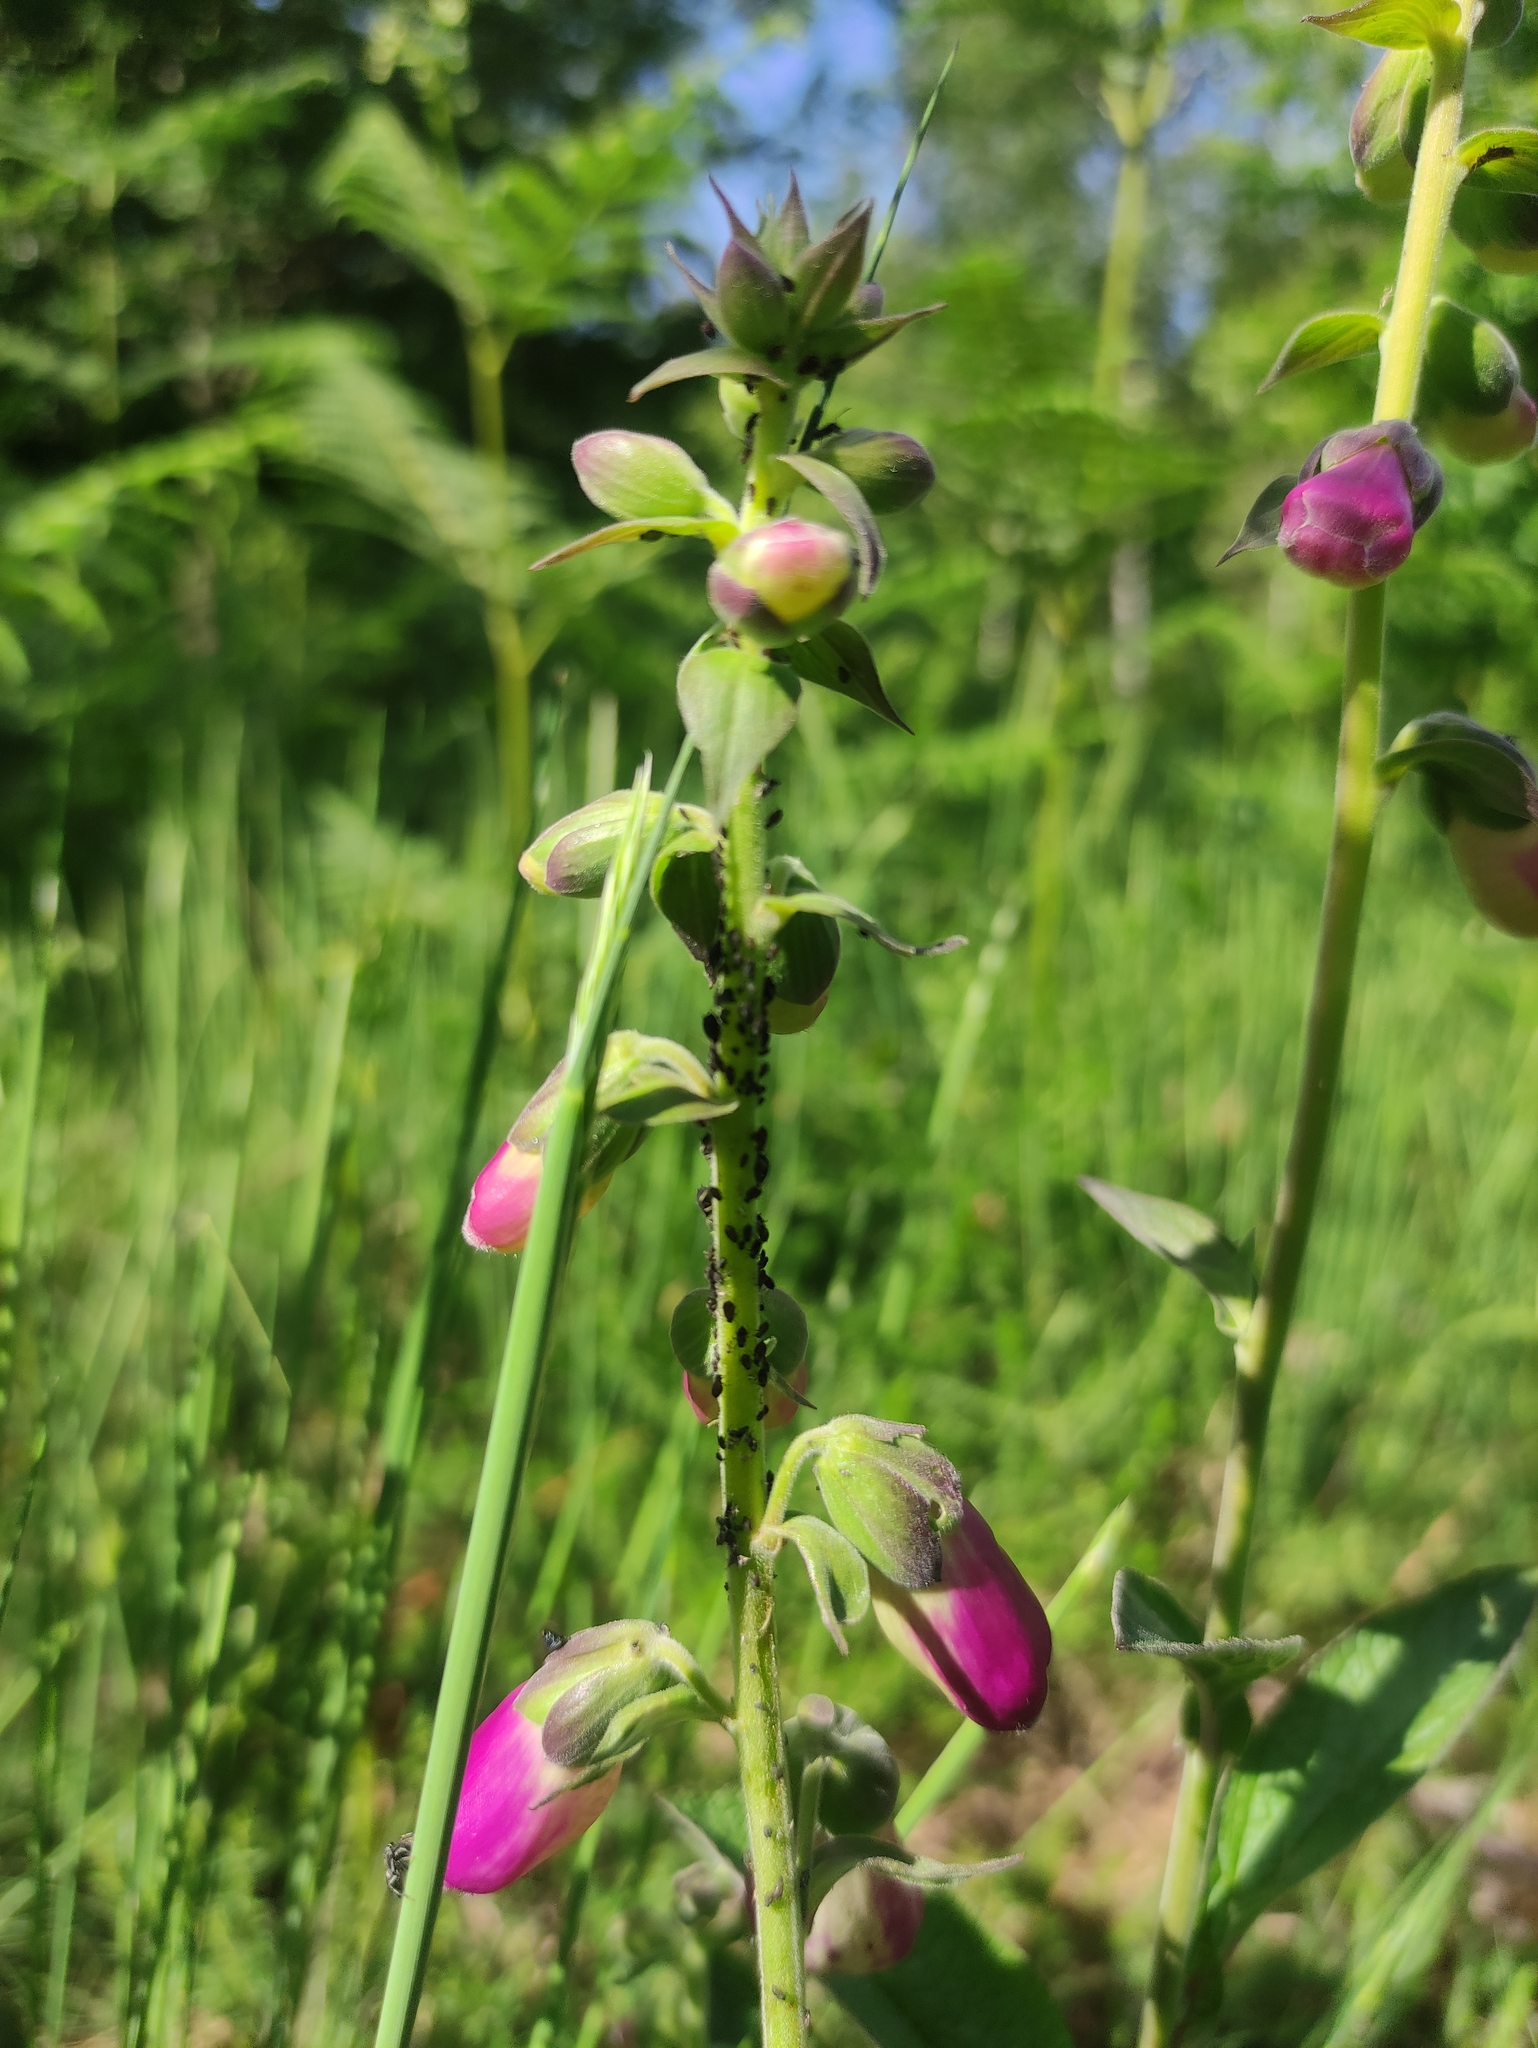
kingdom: Plantae
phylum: Tracheophyta
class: Magnoliopsida
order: Lamiales
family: Plantaginaceae
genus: Digitalis
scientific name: Digitalis purpurea
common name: Foxglove
